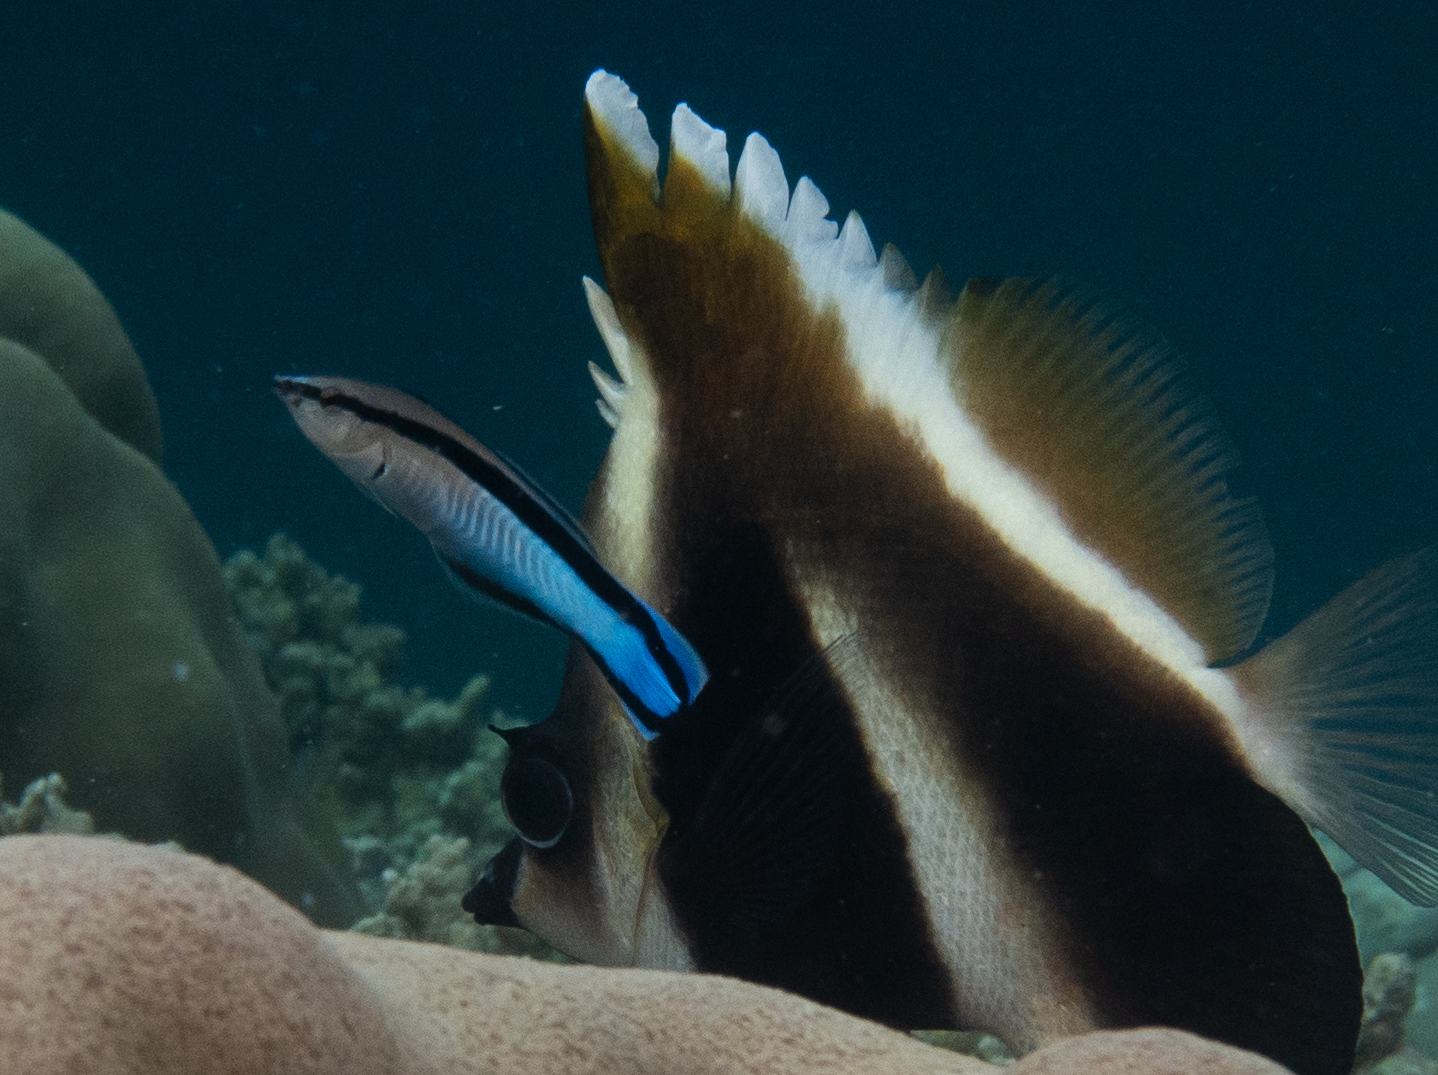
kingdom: Animalia
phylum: Chordata
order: Perciformes
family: Labridae
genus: Labroides
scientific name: Labroides dimidiatus
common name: Blue diesel wrasse
